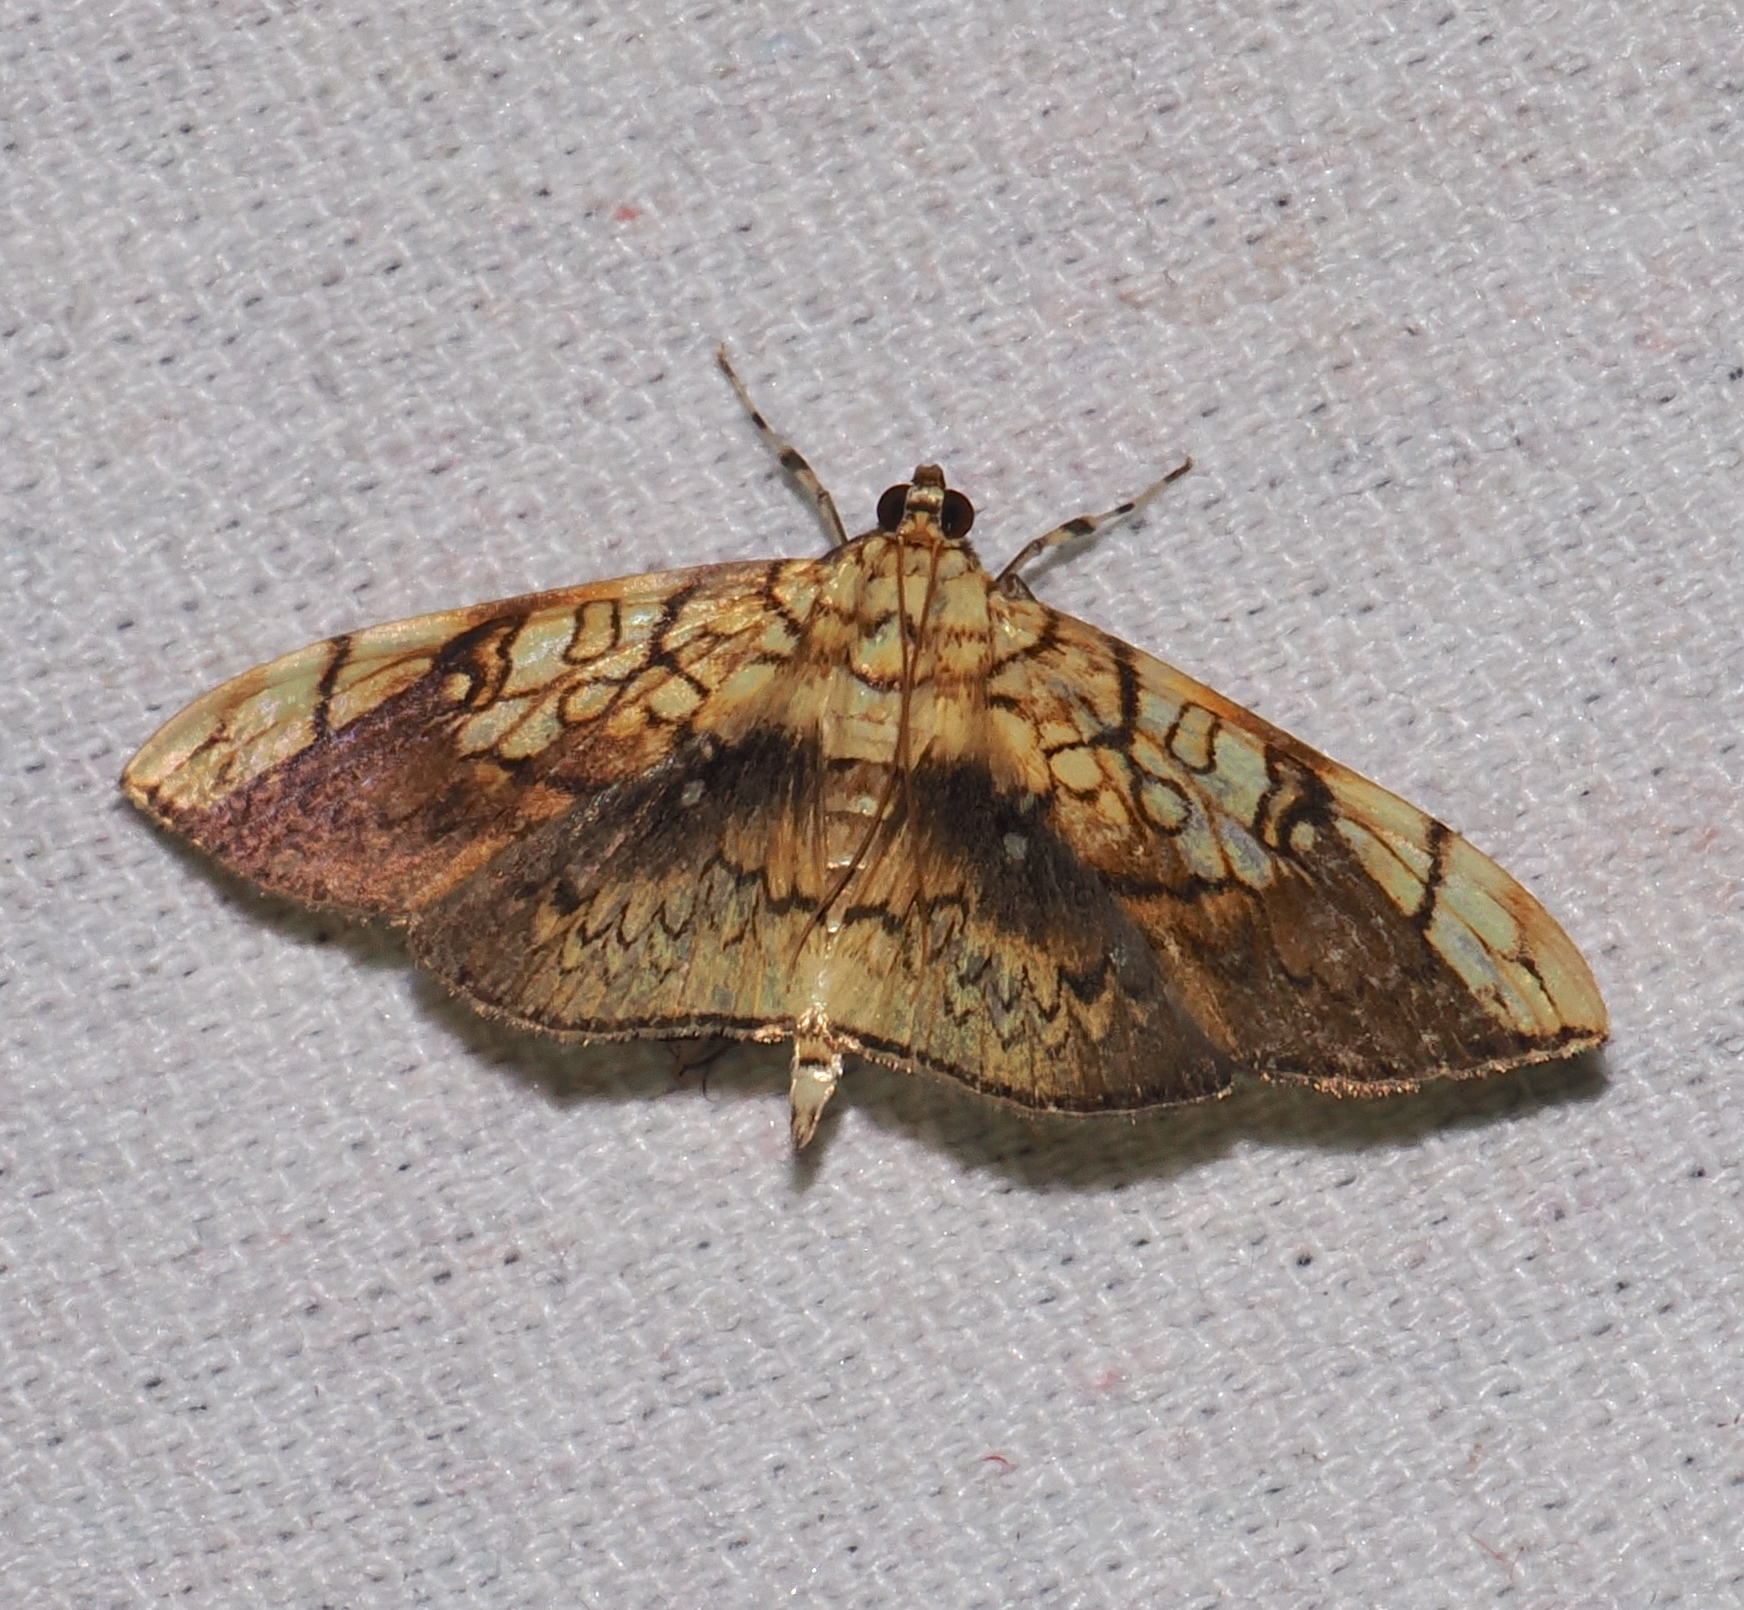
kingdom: Animalia
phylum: Arthropoda
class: Insecta
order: Lepidoptera
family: Crambidae
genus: Pantographa
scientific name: Pantographa scripturalis
